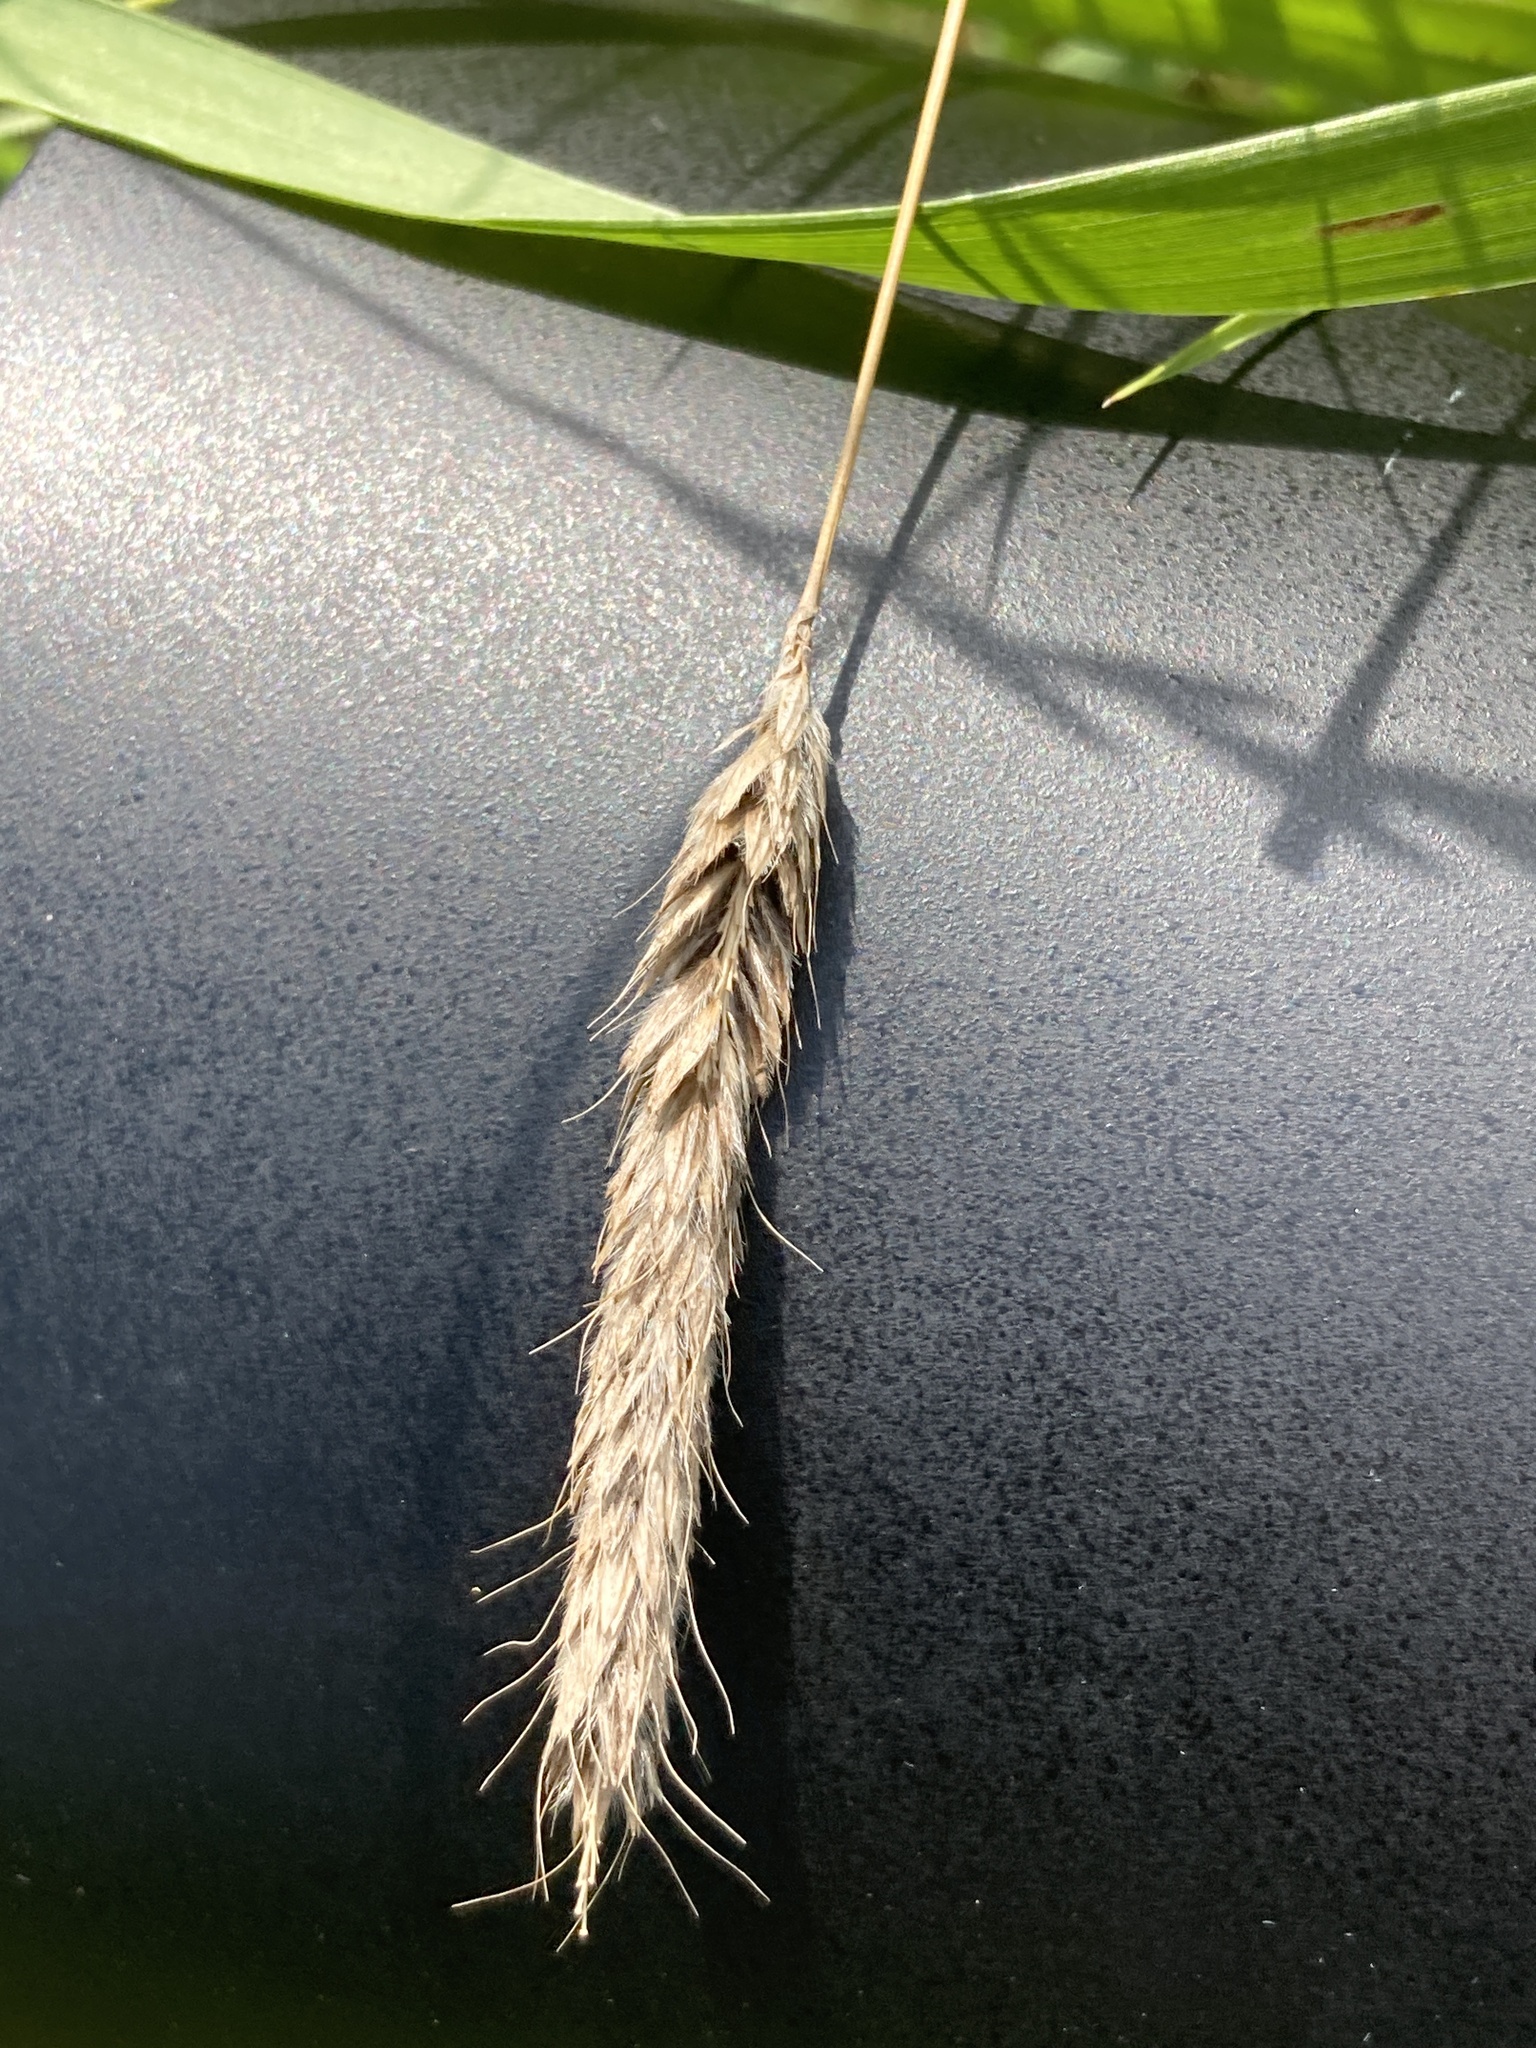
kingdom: Plantae
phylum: Tracheophyta
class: Liliopsida
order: Poales
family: Poaceae
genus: Alopecurus
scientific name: Alopecurus pratensis
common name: Meadow foxtail
